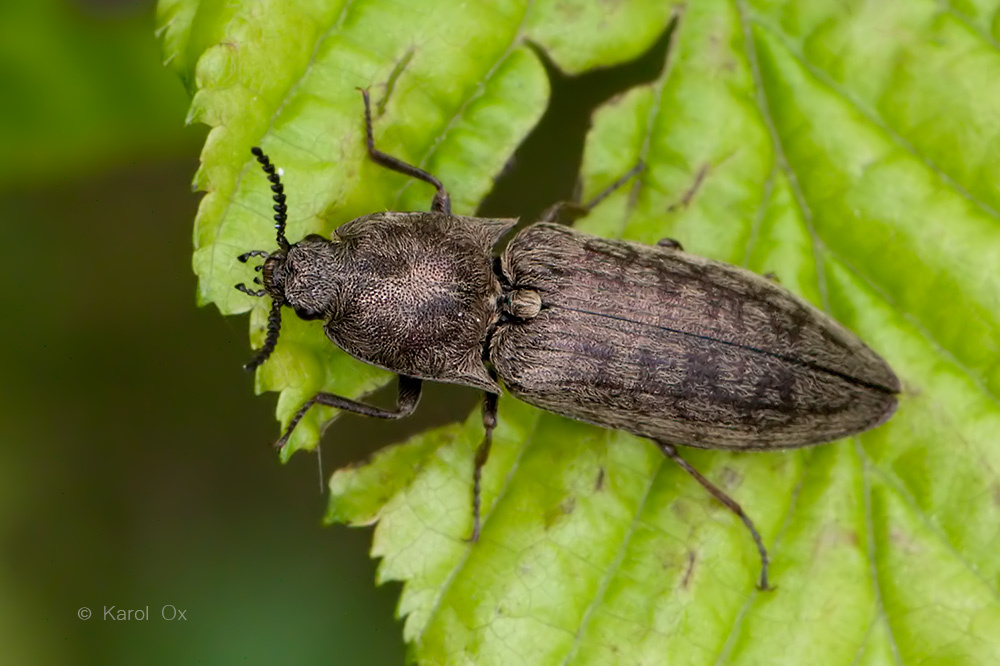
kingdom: Animalia
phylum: Arthropoda
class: Insecta
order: Coleoptera
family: Elateridae
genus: Actenicerus
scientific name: Actenicerus sjaelandicus
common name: Marsh click beetle
